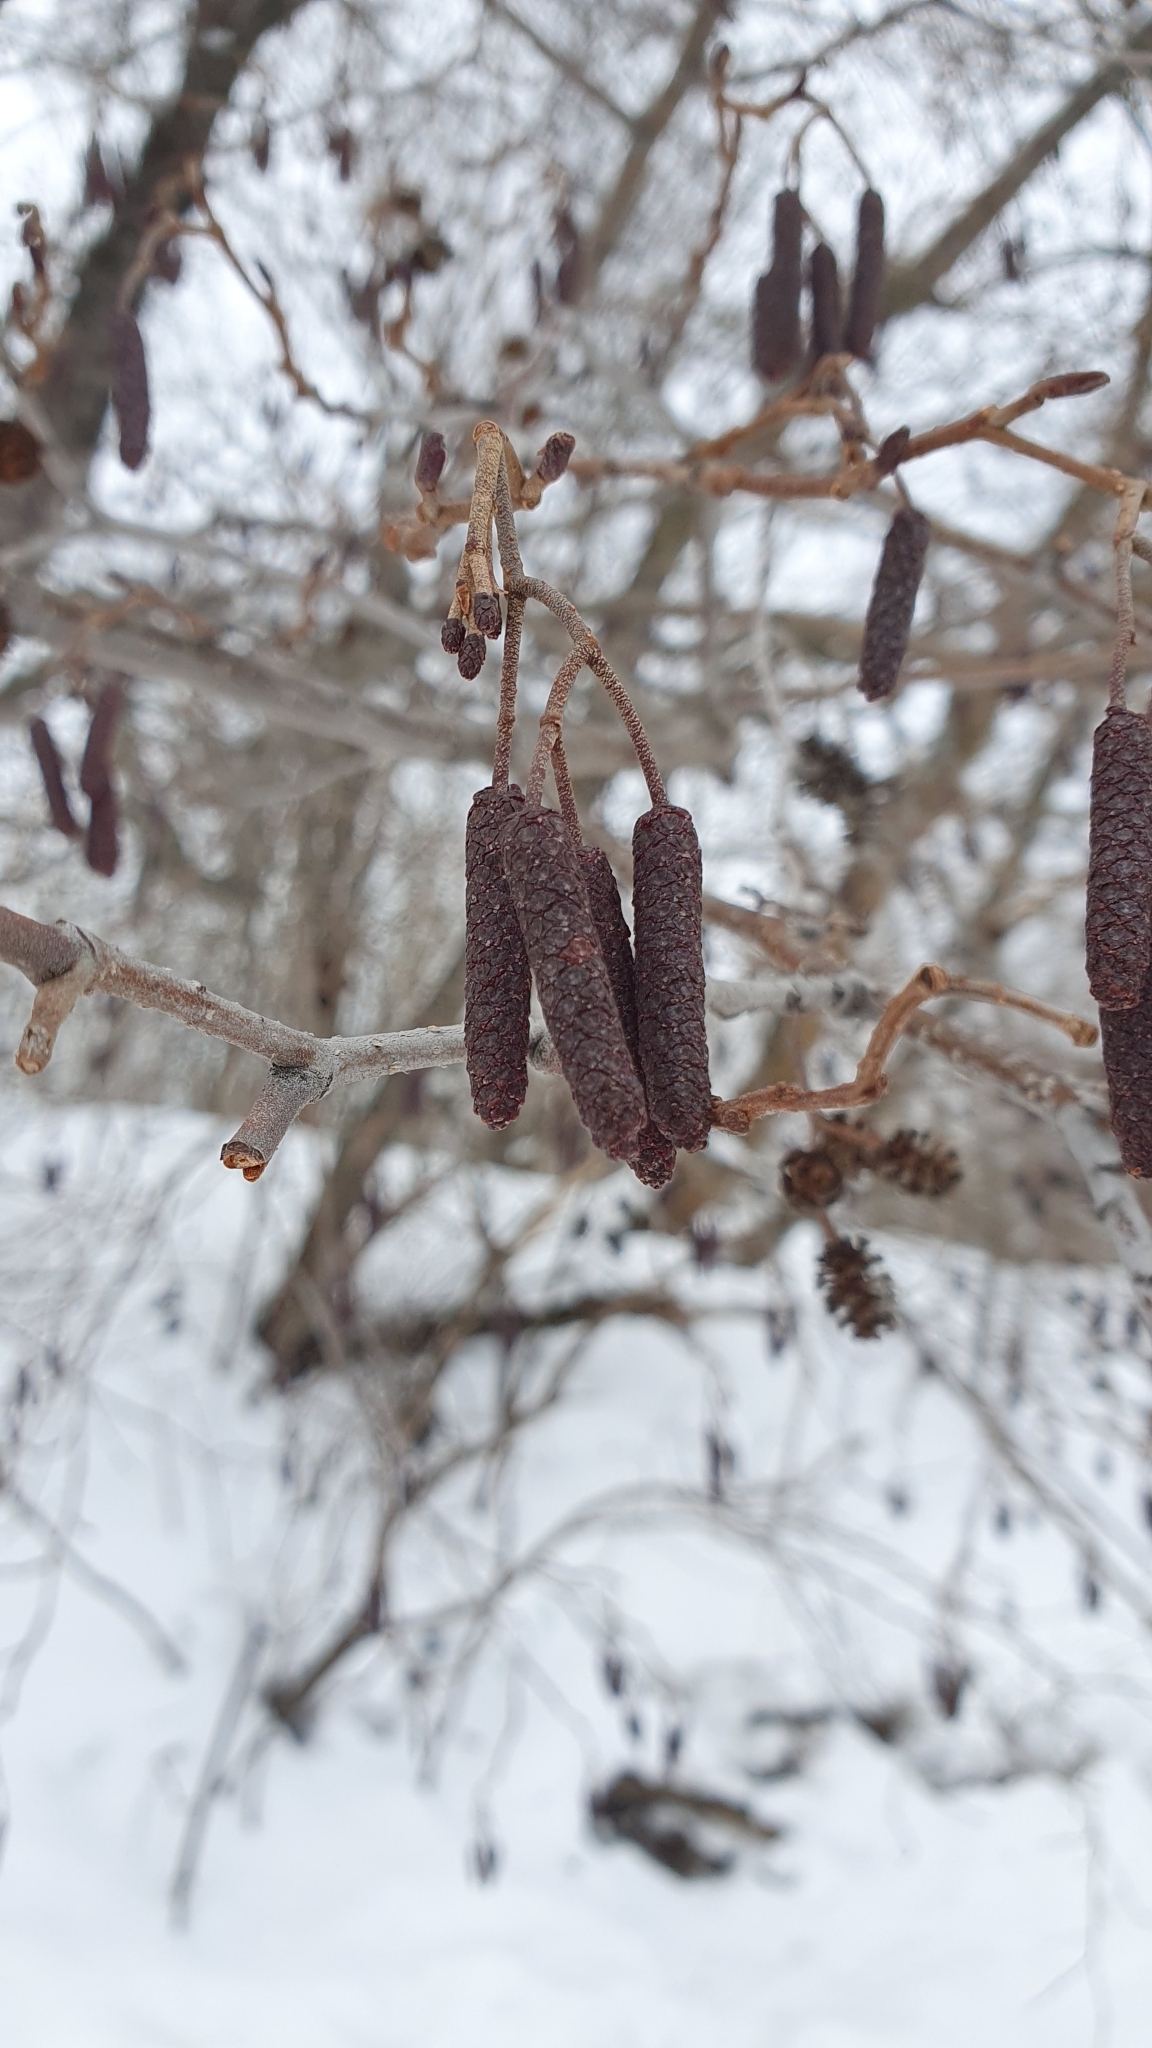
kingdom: Plantae
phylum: Tracheophyta
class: Magnoliopsida
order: Fagales
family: Betulaceae
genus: Alnus
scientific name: Alnus glutinosa
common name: Black alder
